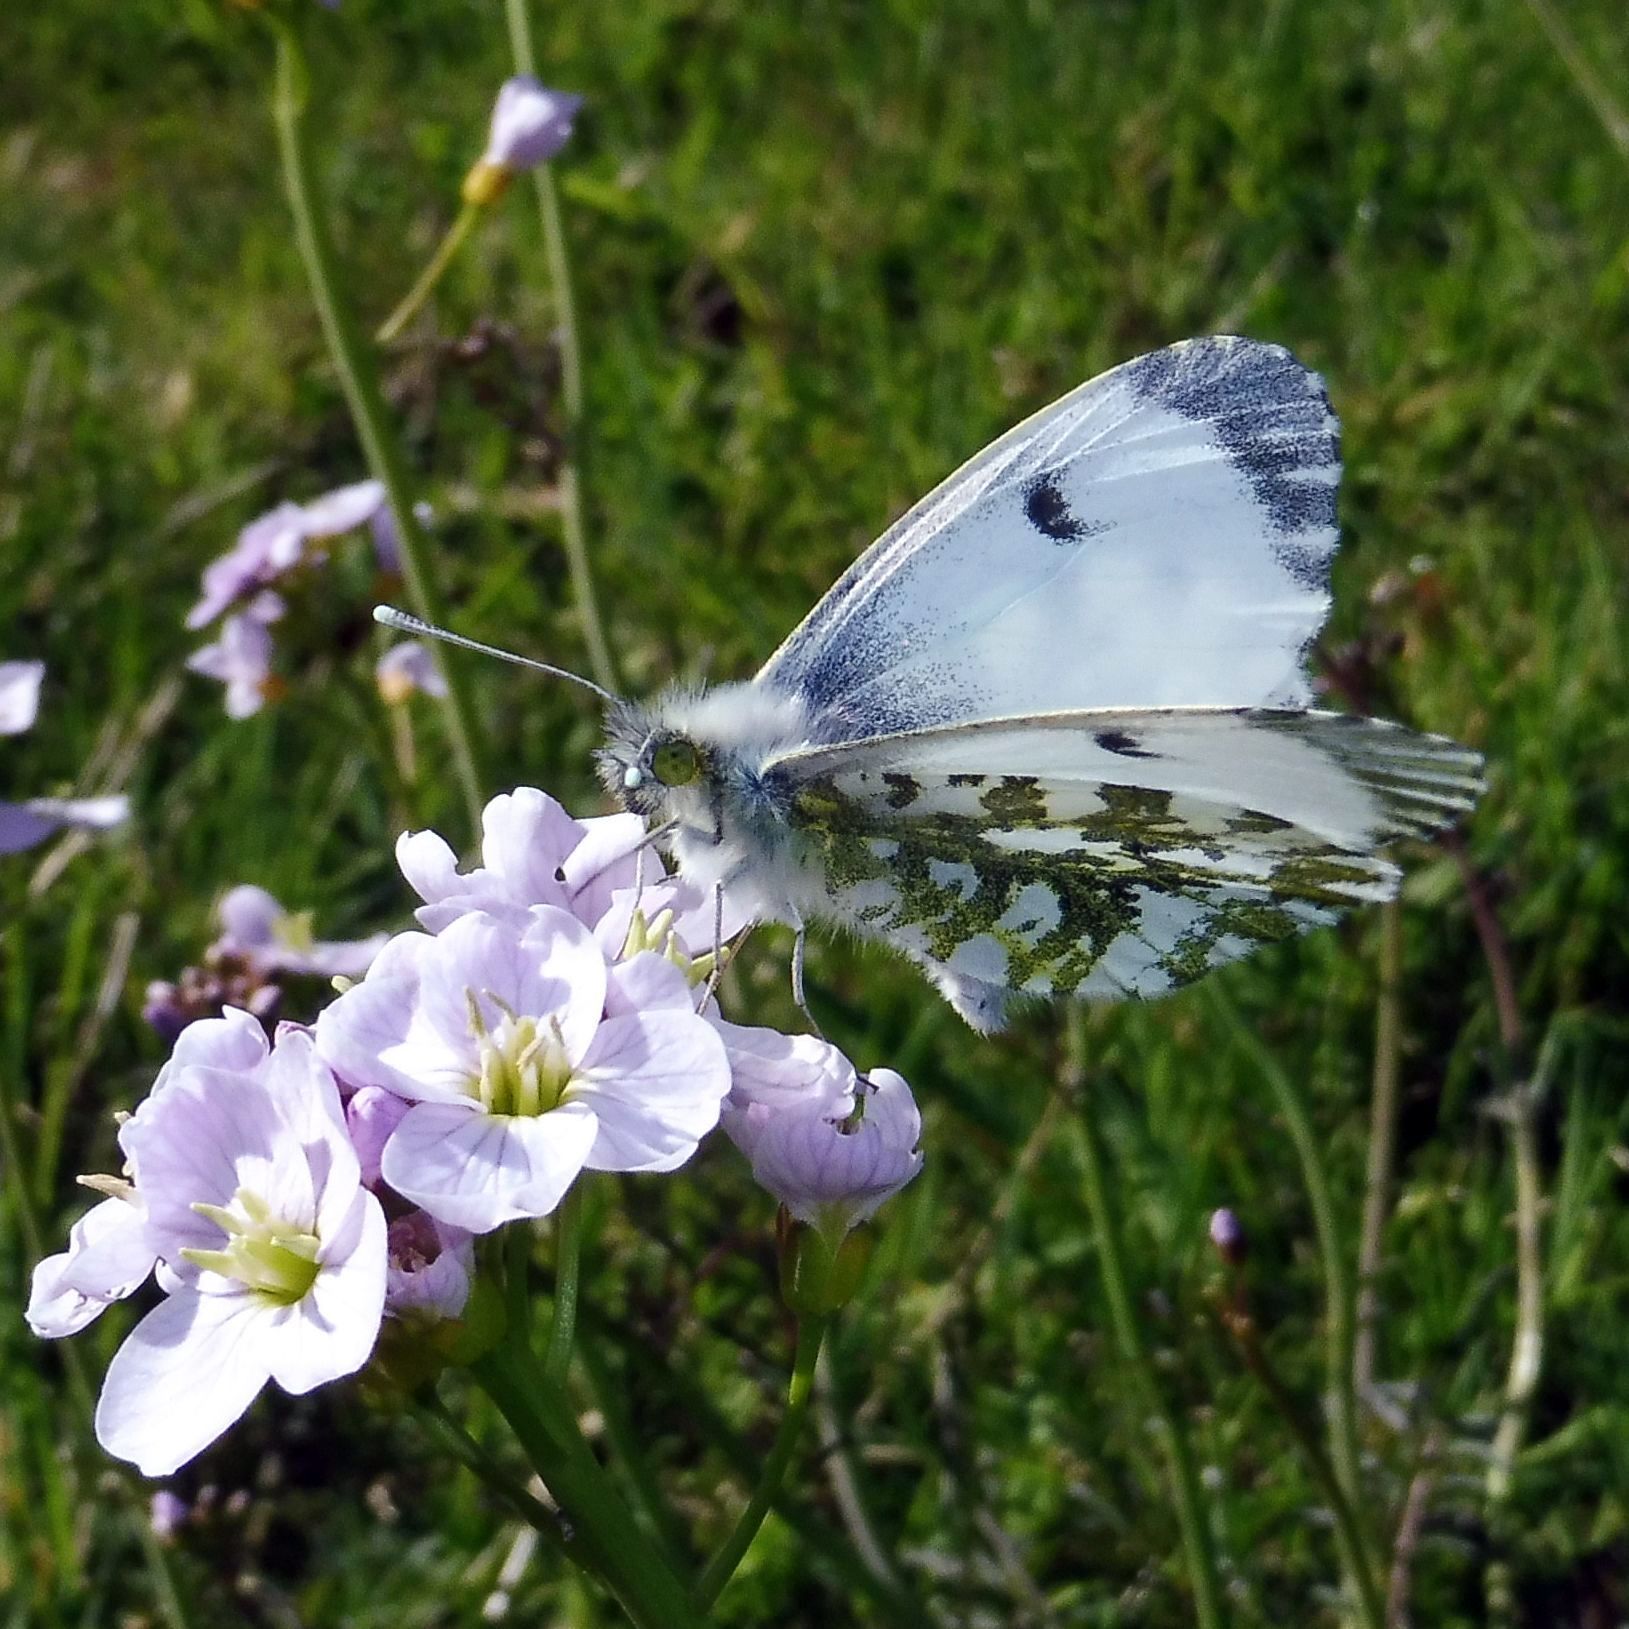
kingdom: Animalia
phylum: Arthropoda
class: Insecta
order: Lepidoptera
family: Pieridae
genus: Anthocharis
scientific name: Anthocharis cardamines
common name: Orange-tip
